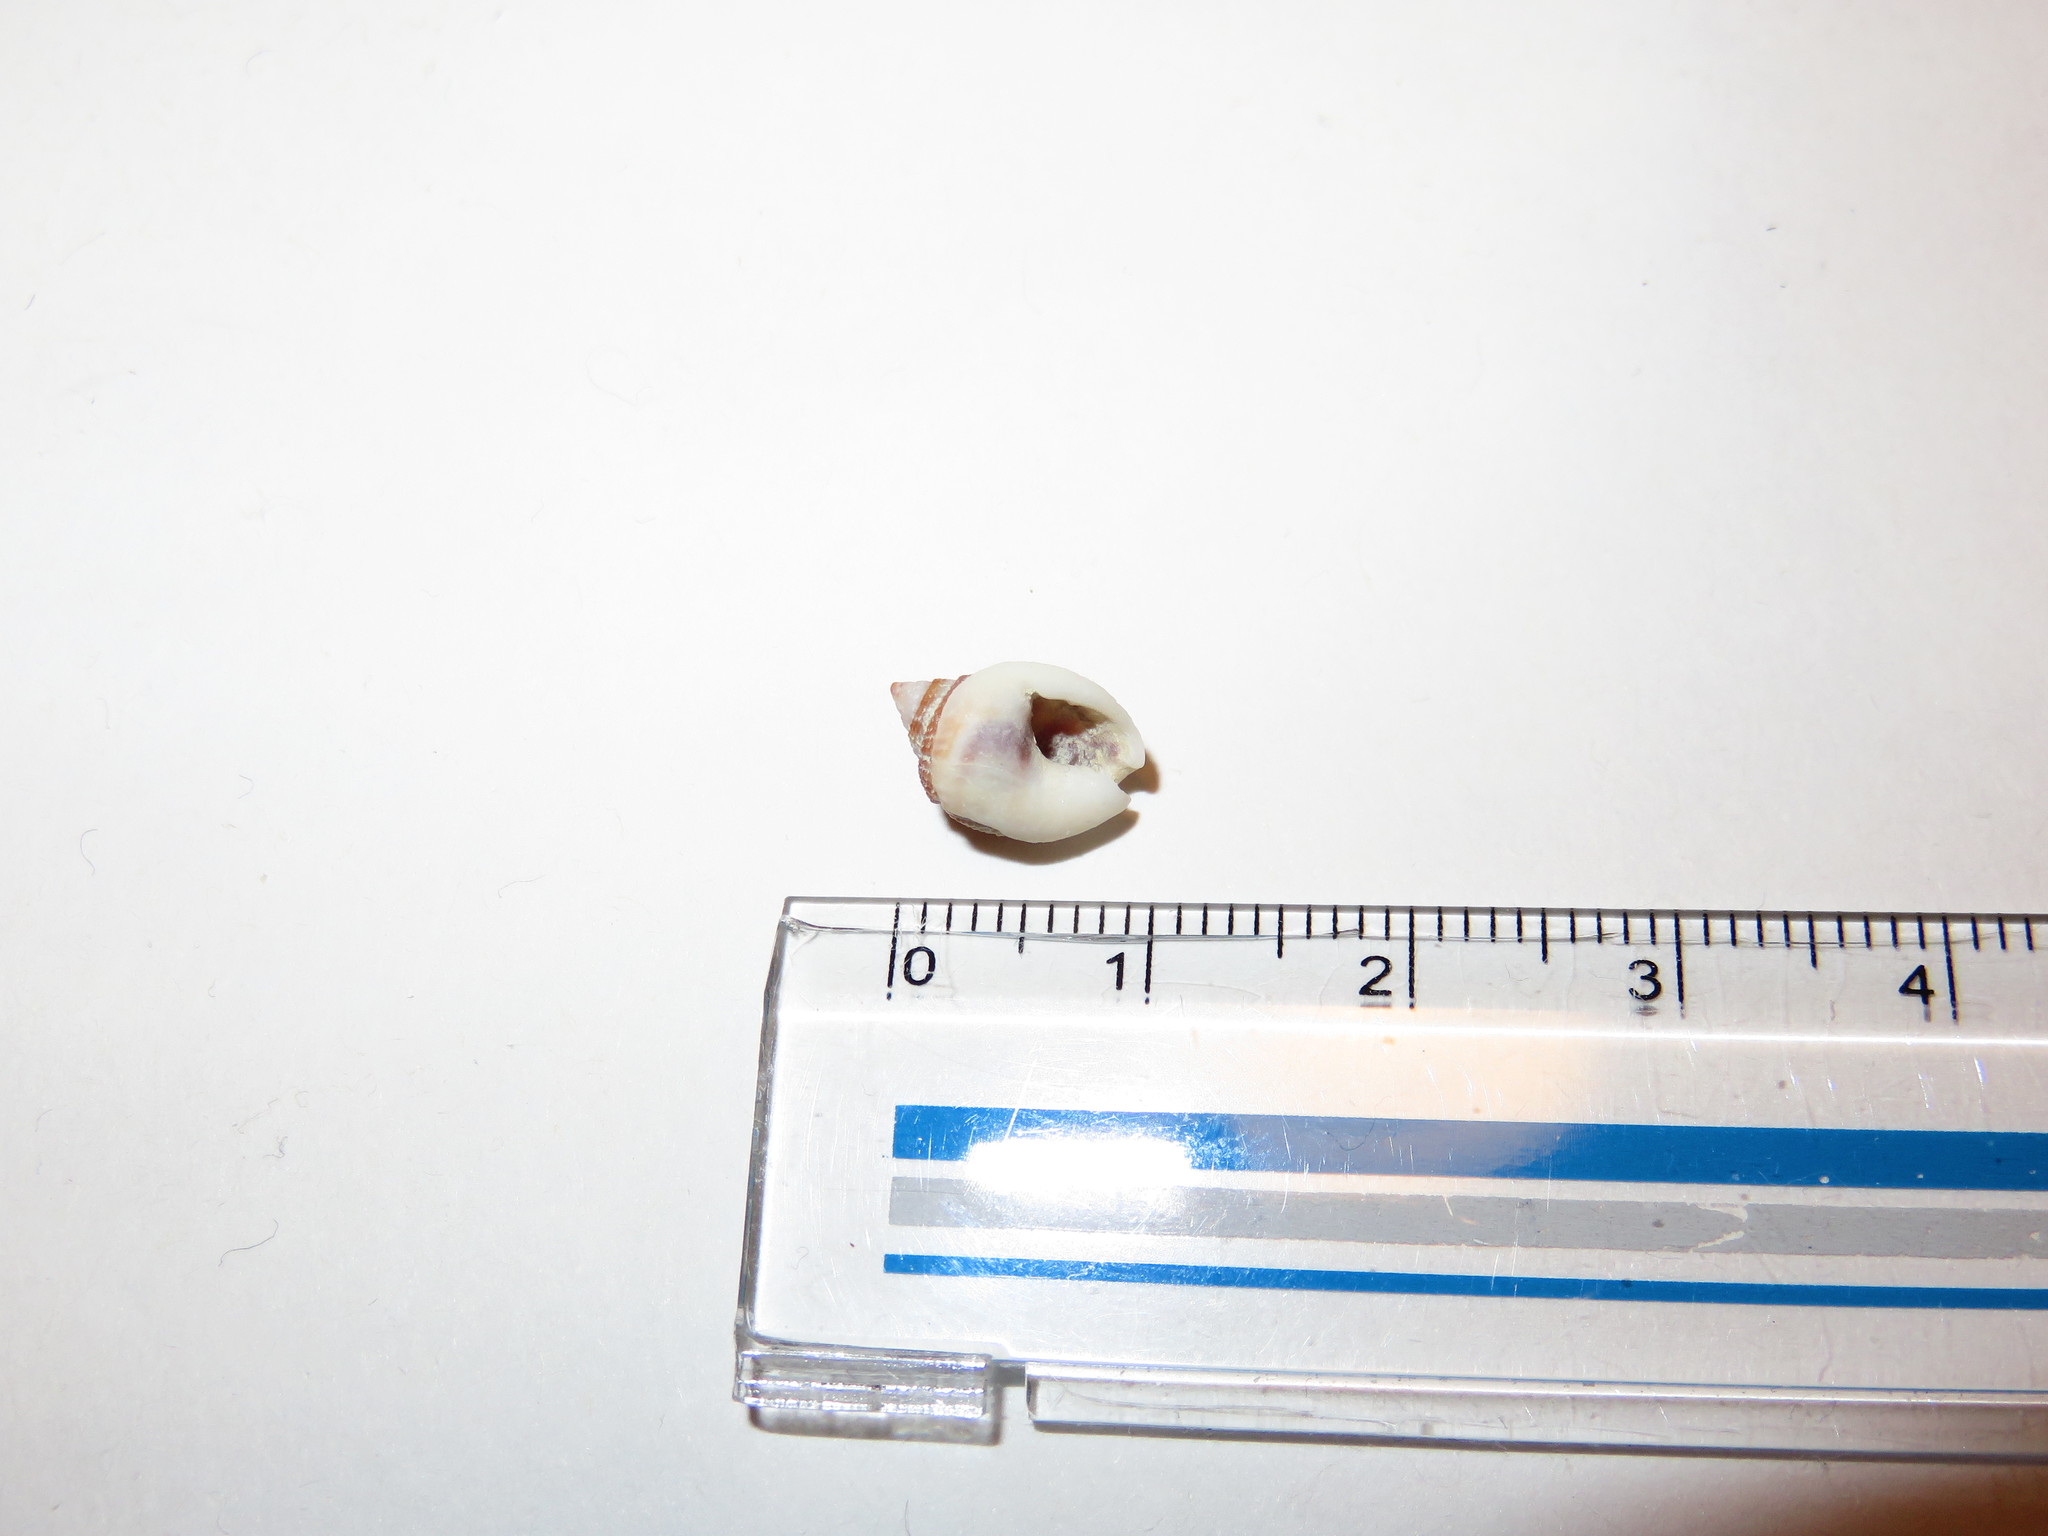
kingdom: Animalia
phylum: Mollusca
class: Gastropoda
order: Neogastropoda
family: Nassariidae
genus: Nassarius
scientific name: Nassarius globosus
